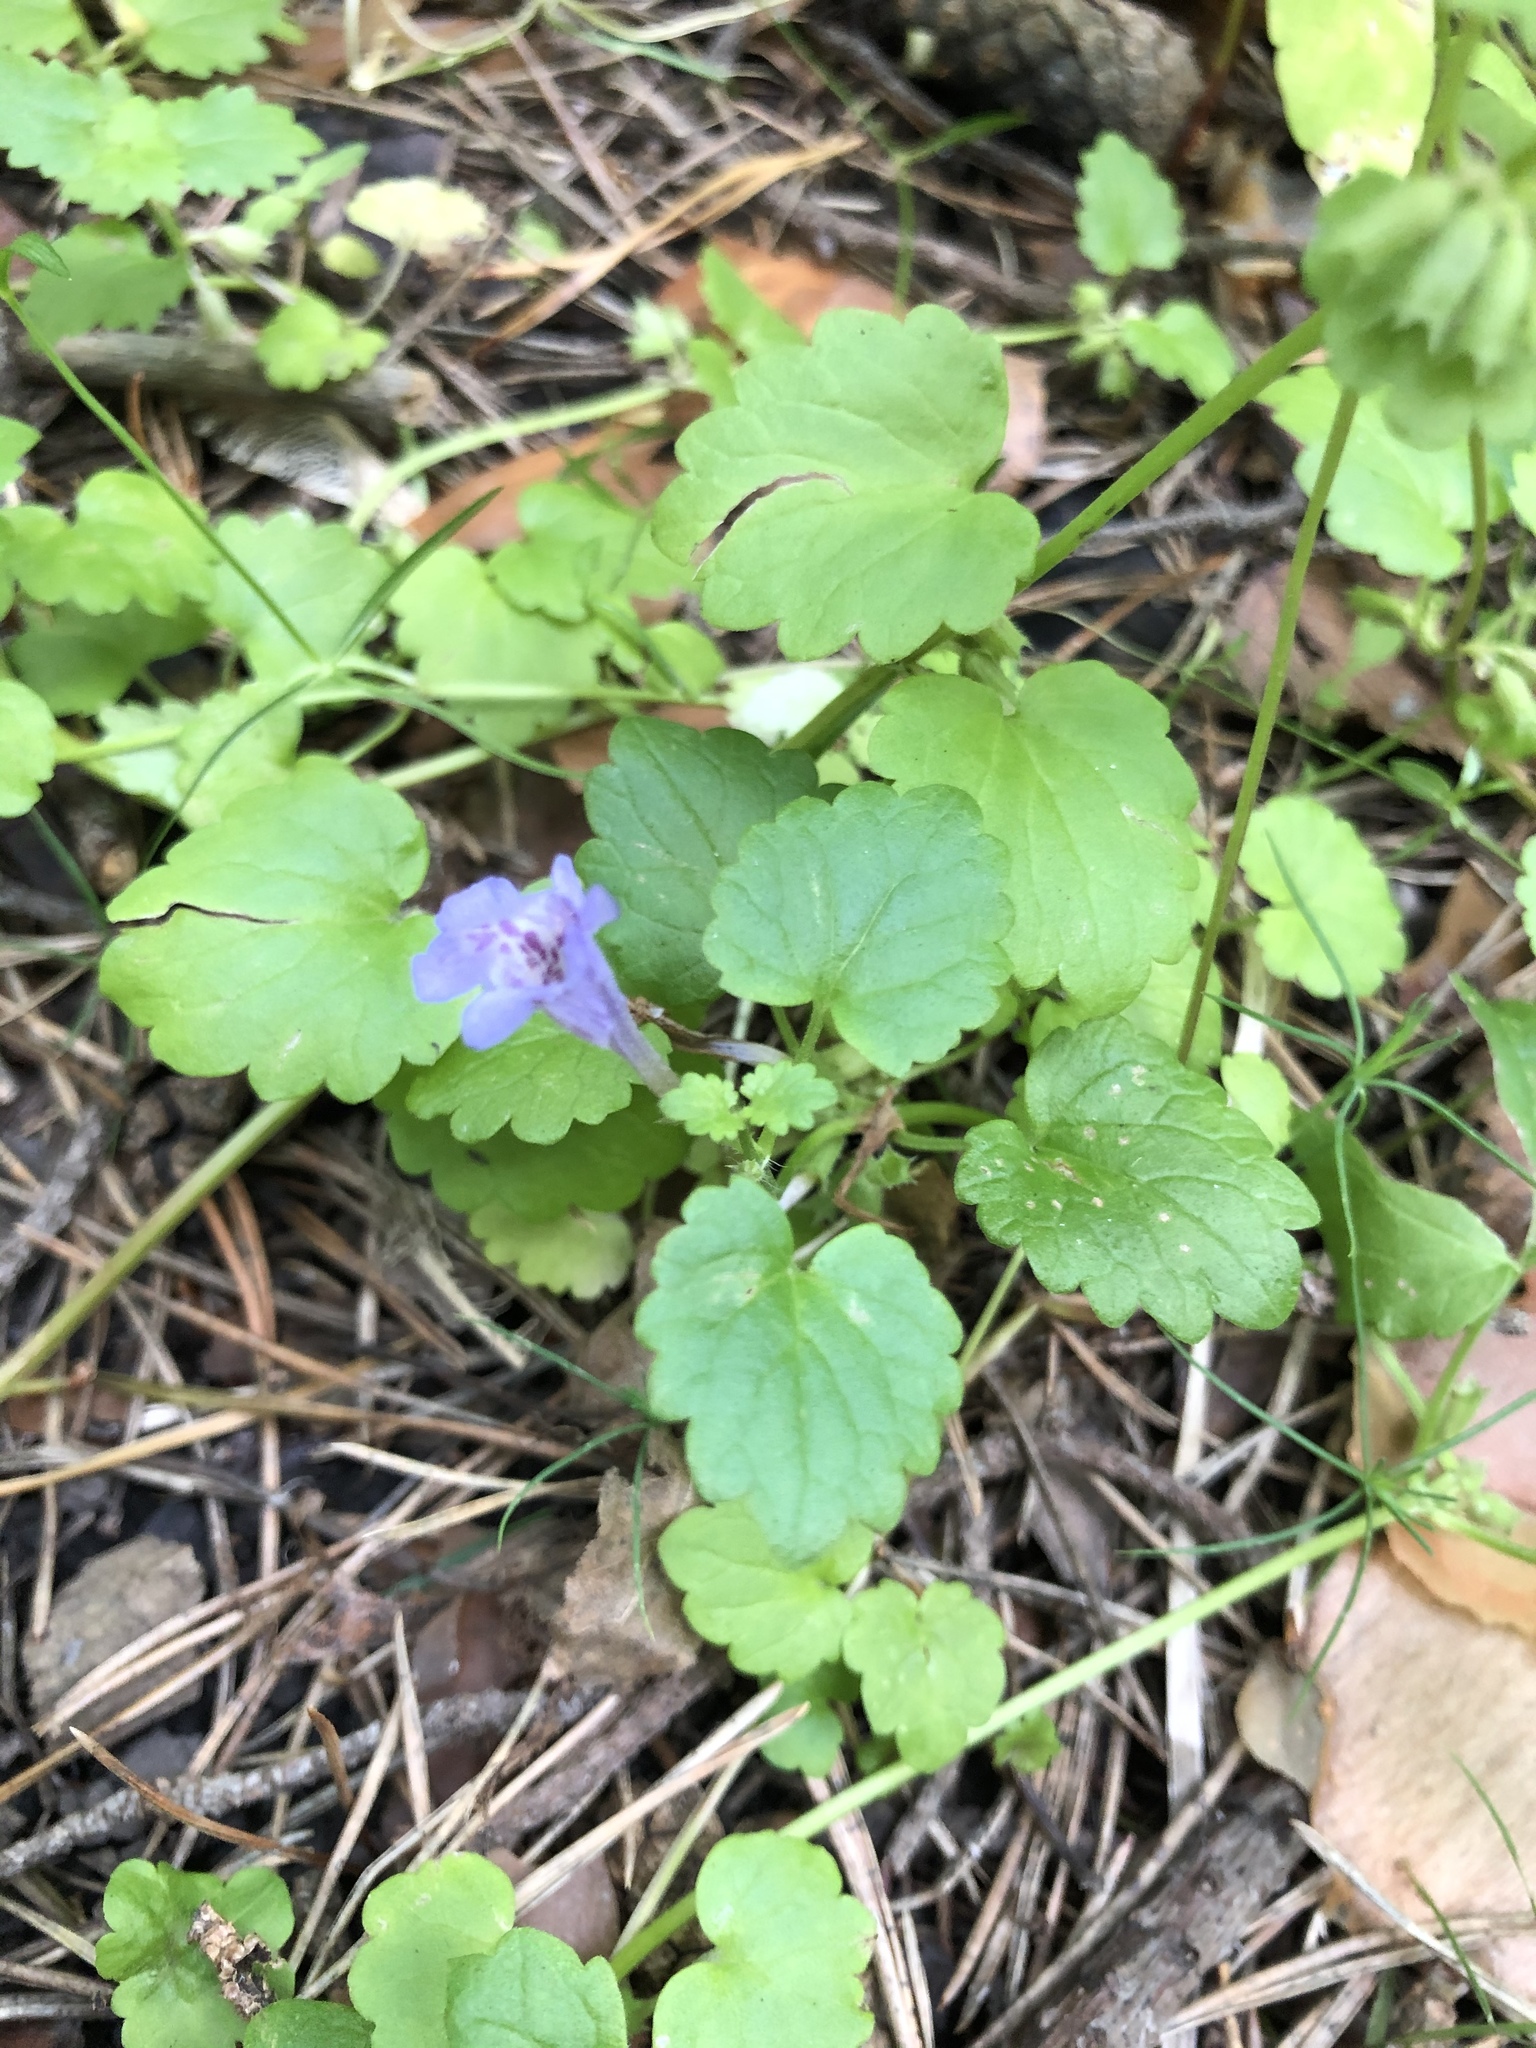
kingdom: Plantae
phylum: Tracheophyta
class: Magnoliopsida
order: Lamiales
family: Lamiaceae
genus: Glechoma
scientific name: Glechoma hederacea
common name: Ground ivy
